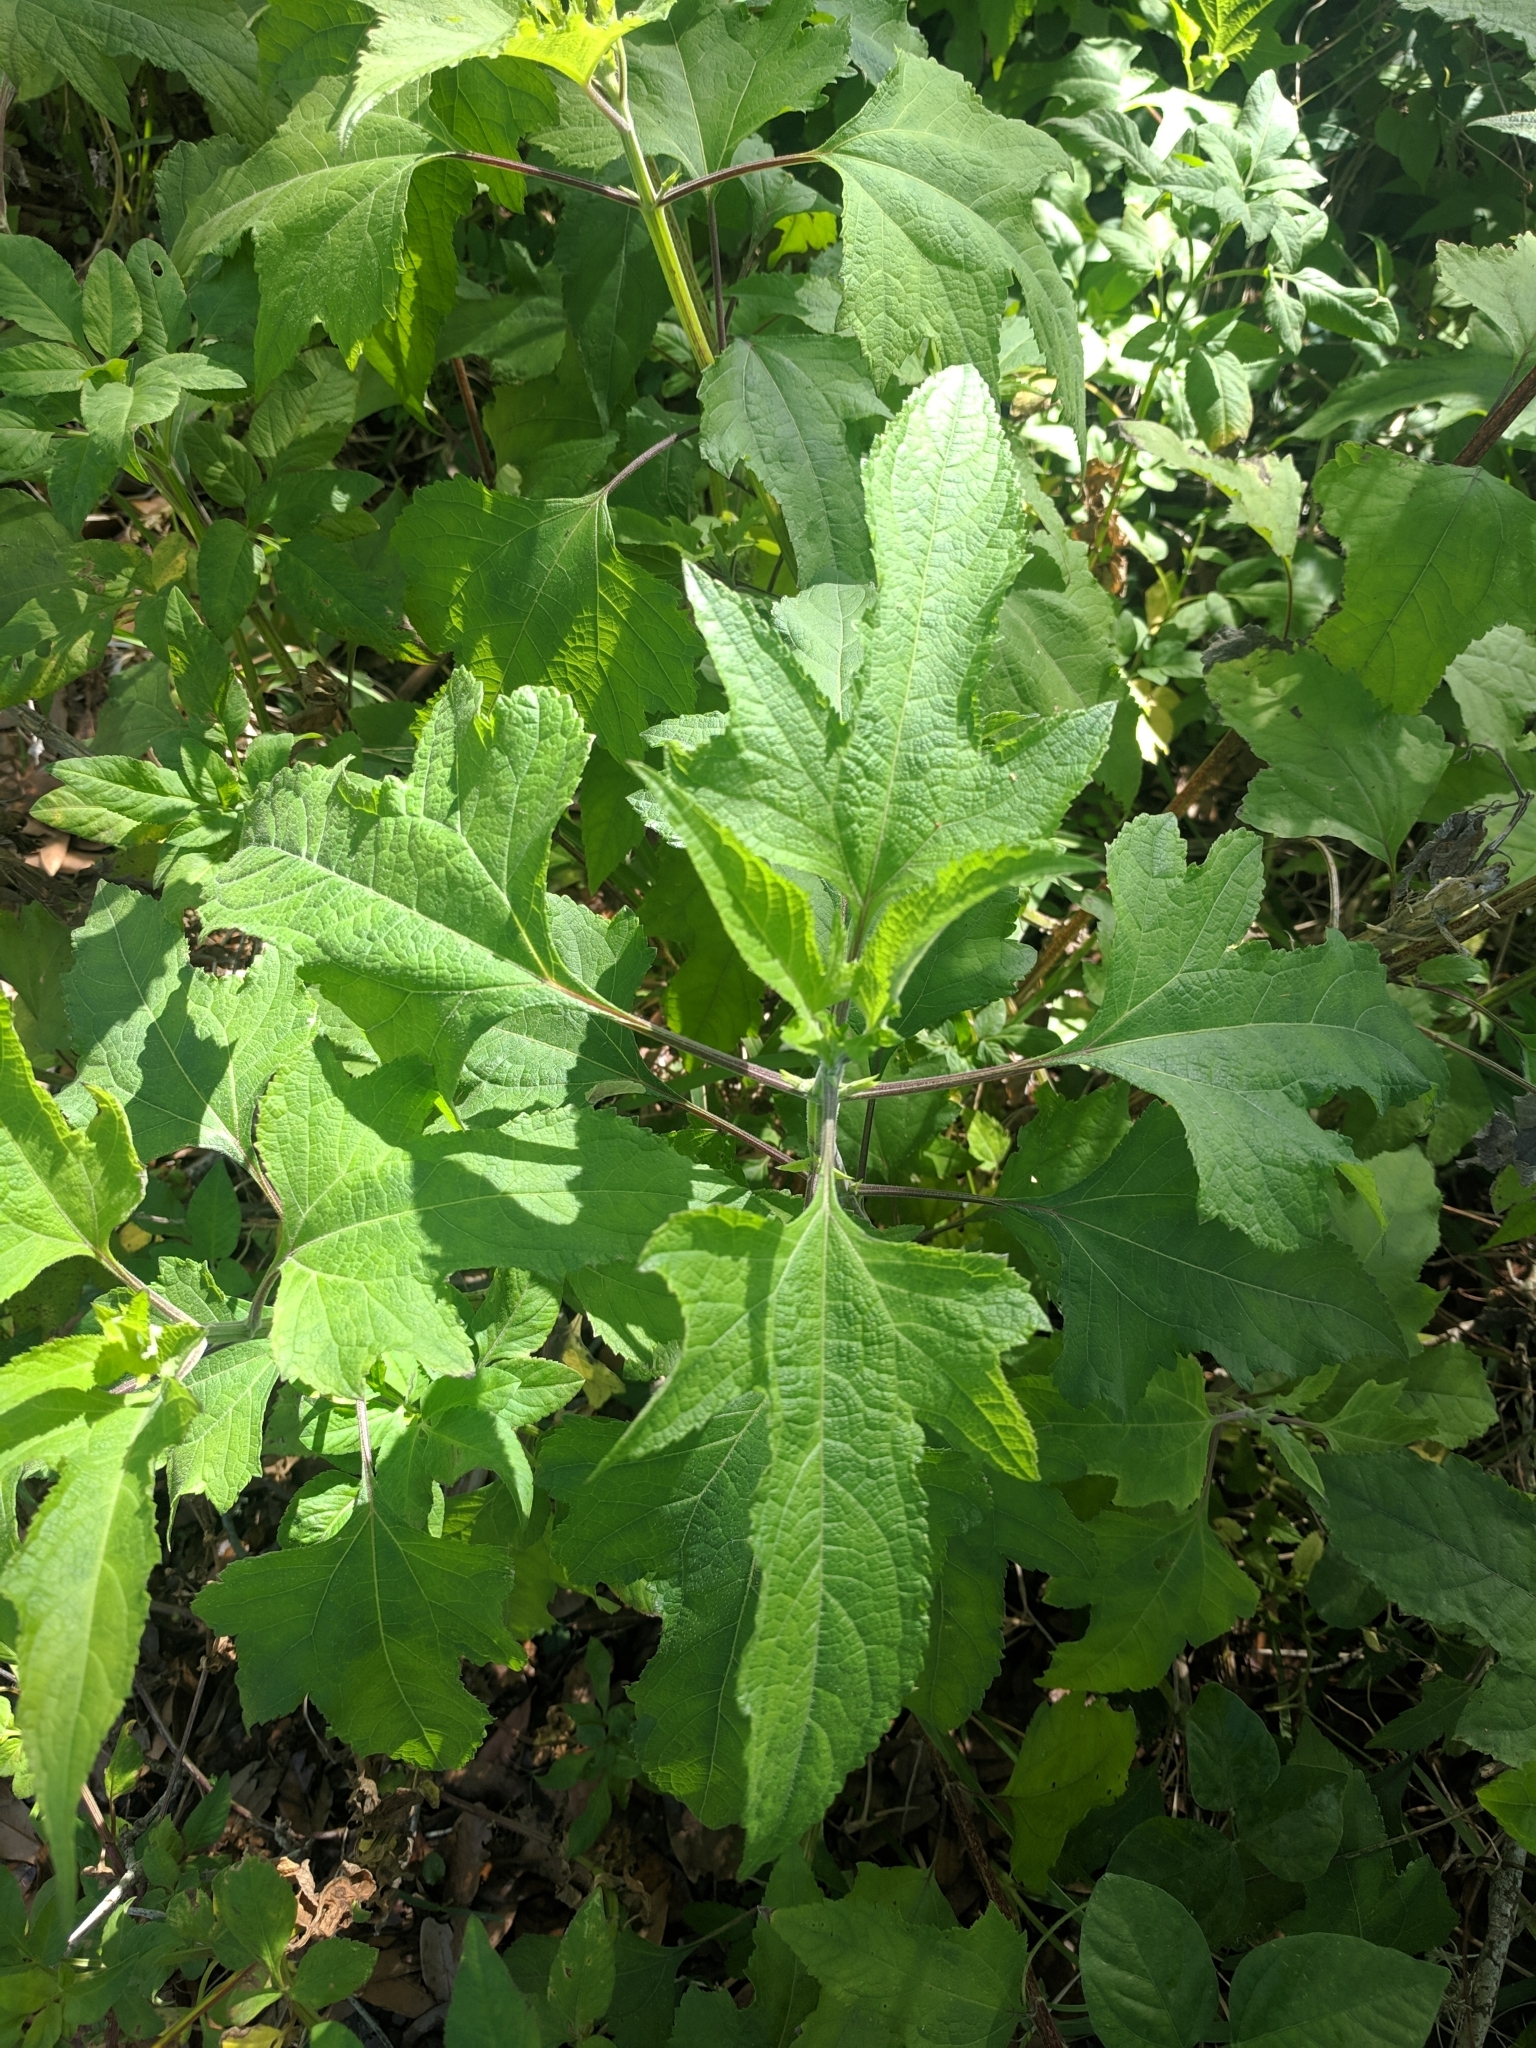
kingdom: Plantae
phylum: Tracheophyta
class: Magnoliopsida
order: Asterales
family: Asteraceae
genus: Melanthera
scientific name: Melanthera nivea
